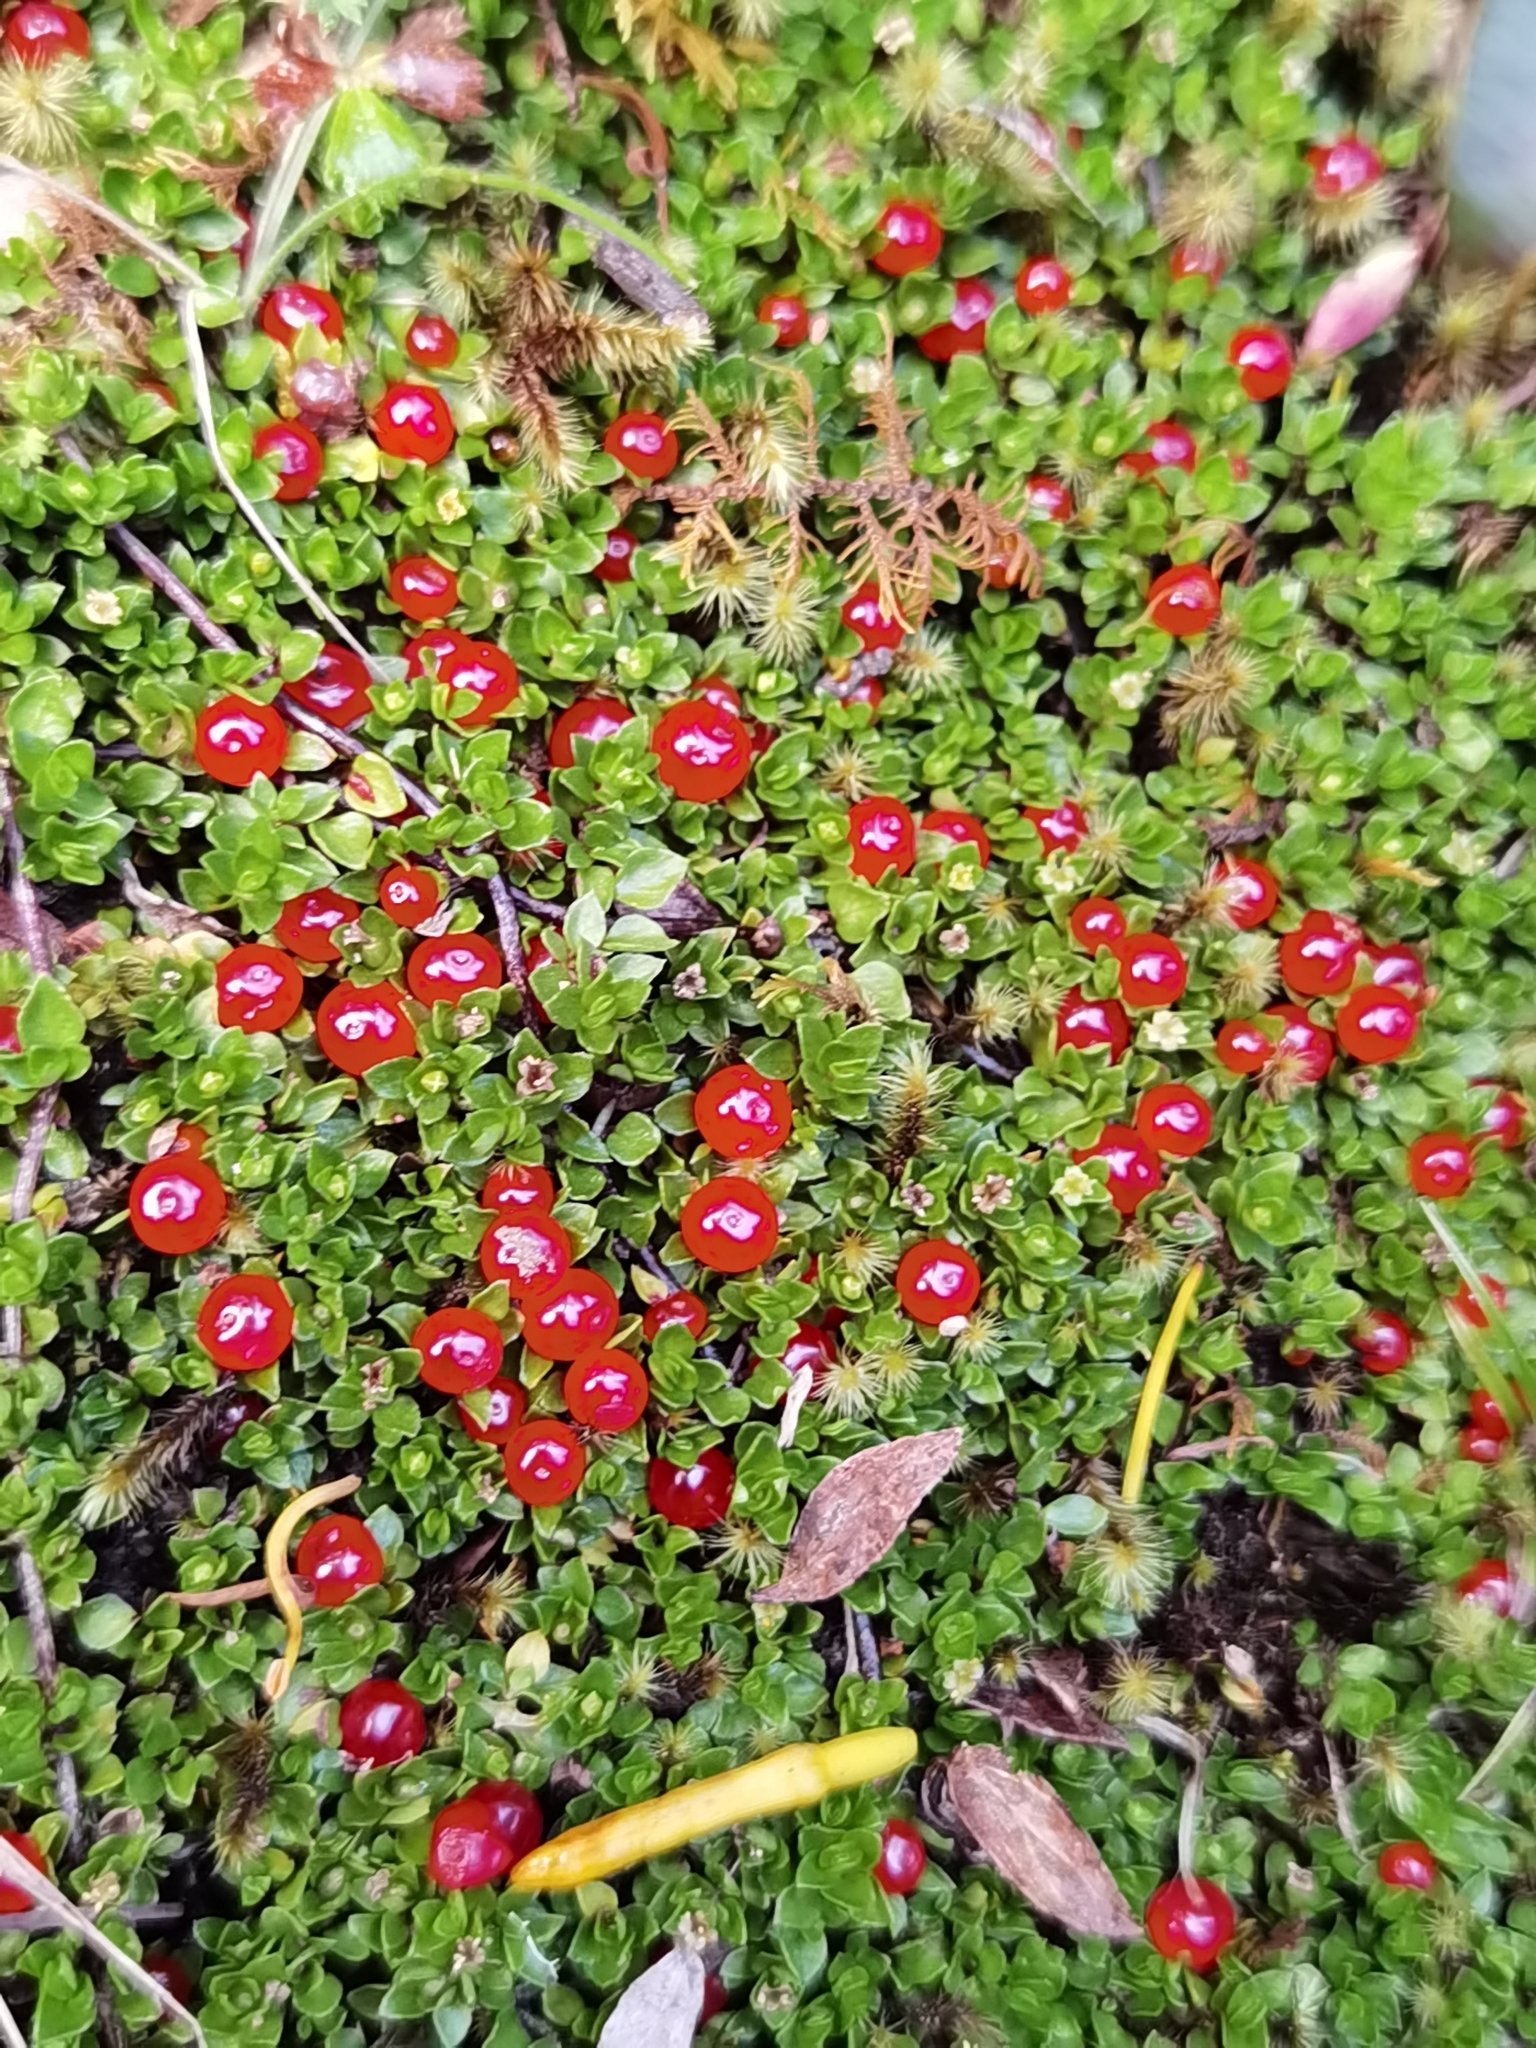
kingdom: Plantae
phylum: Tracheophyta
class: Magnoliopsida
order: Gentianales
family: Rubiaceae
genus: Nertera
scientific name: Nertera granadensis
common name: Beadplant
